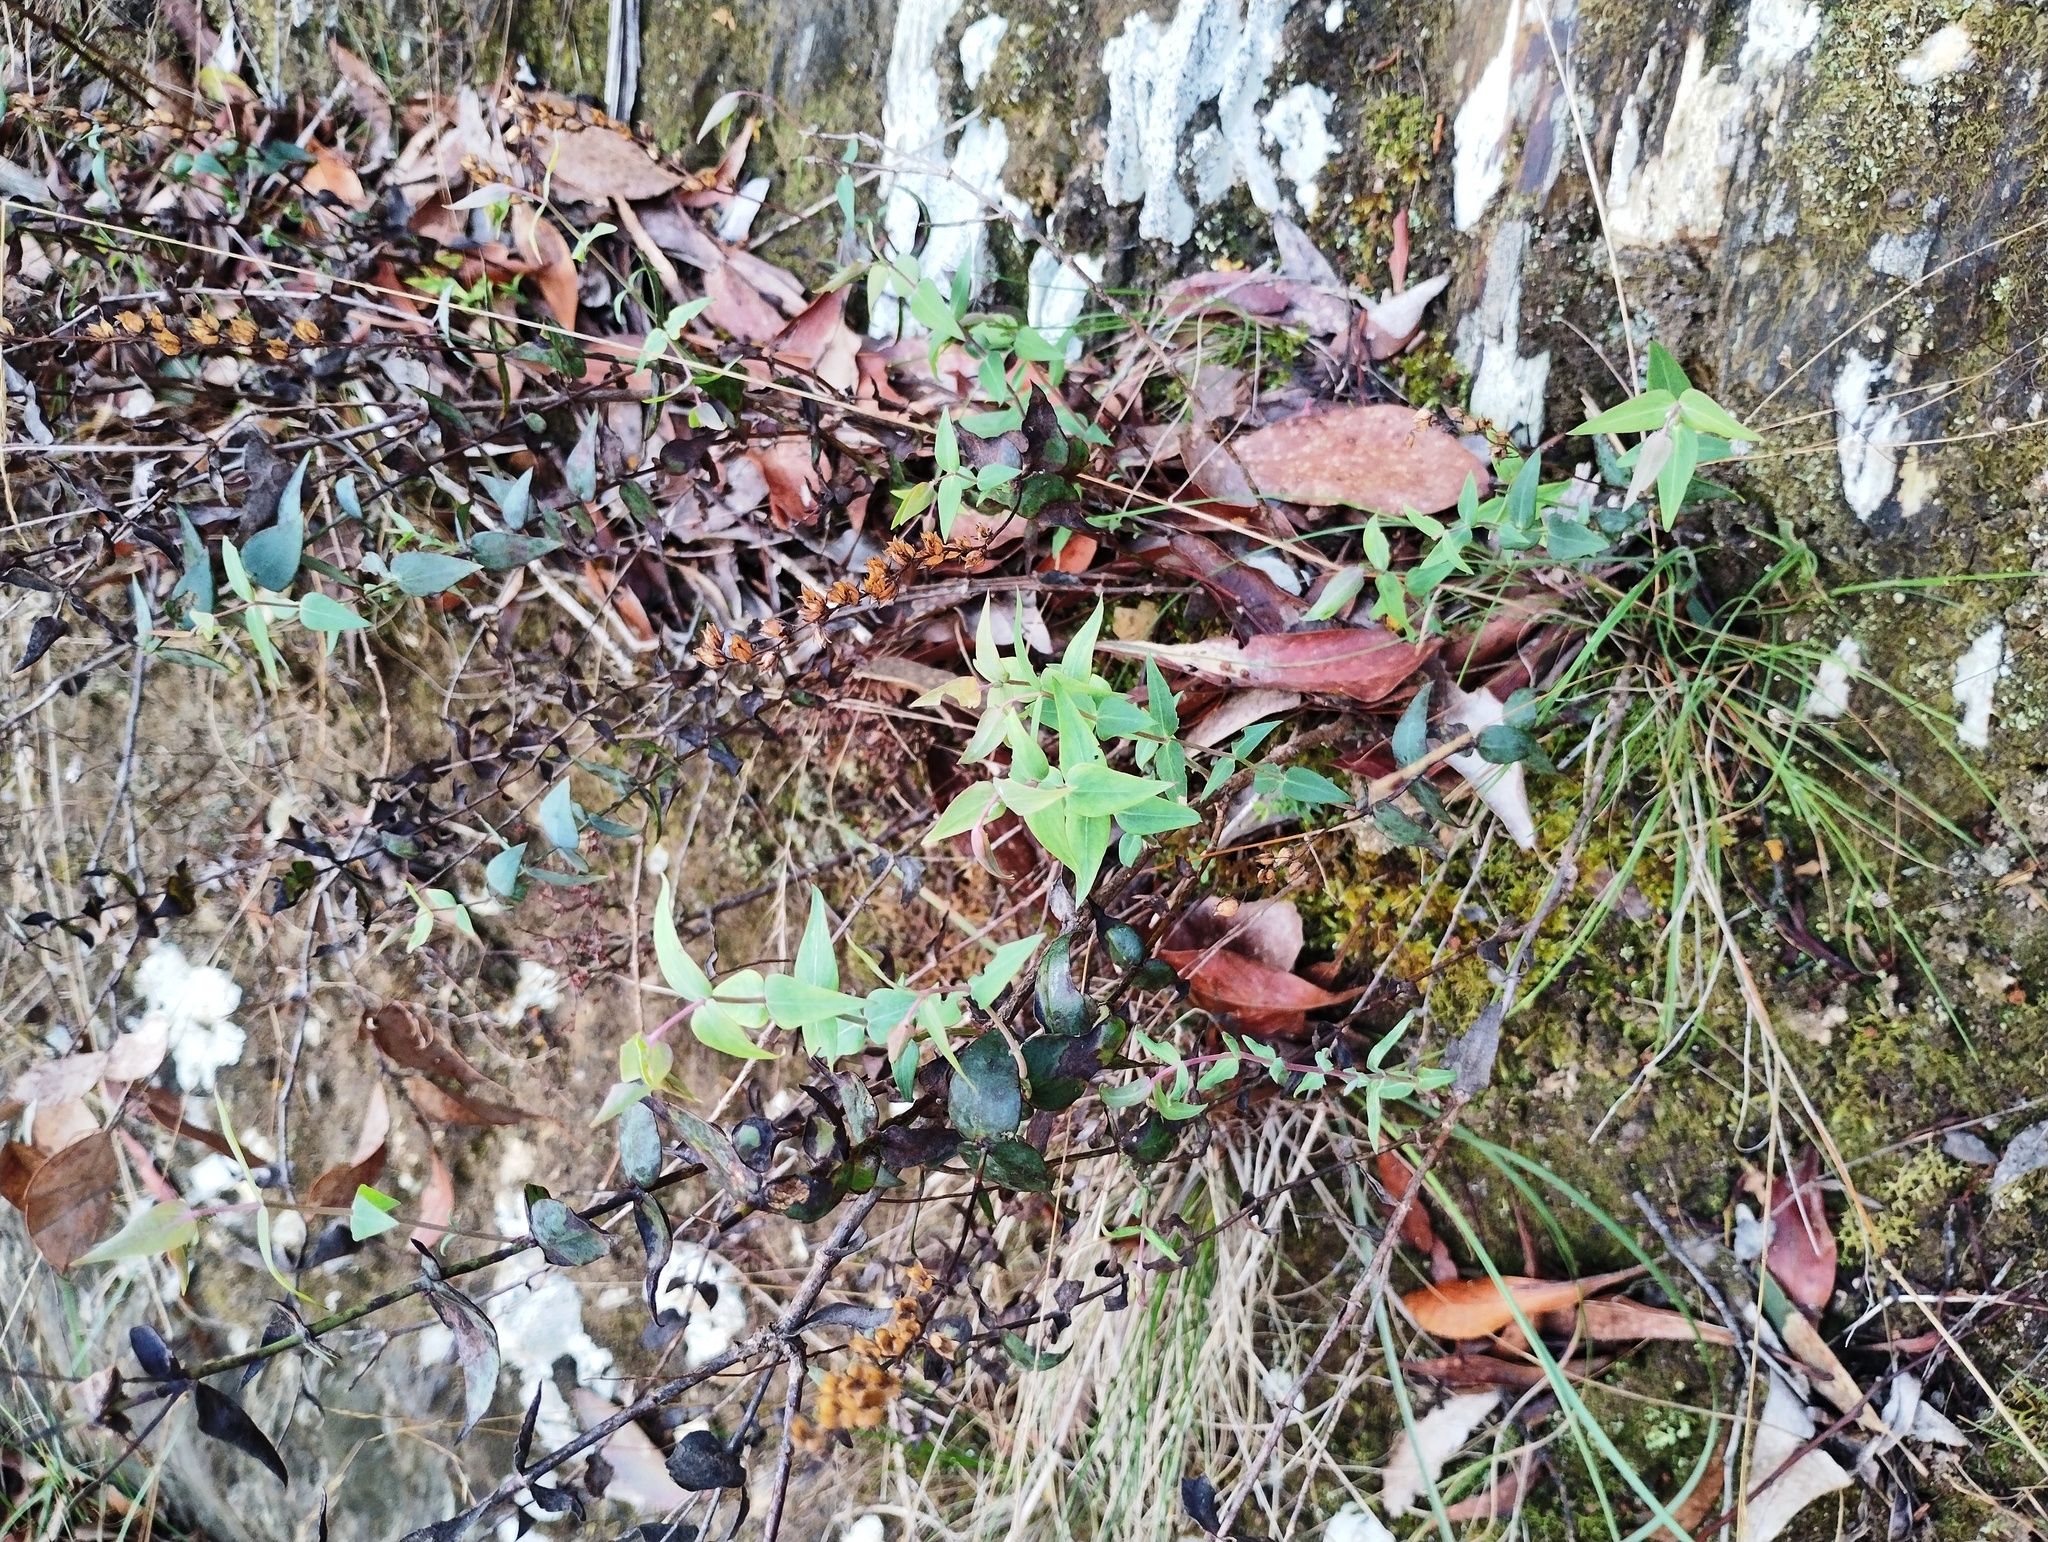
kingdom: Plantae
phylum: Tracheophyta
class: Magnoliopsida
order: Lamiales
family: Plantaginaceae
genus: Veronica
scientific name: Veronica perfoliata
